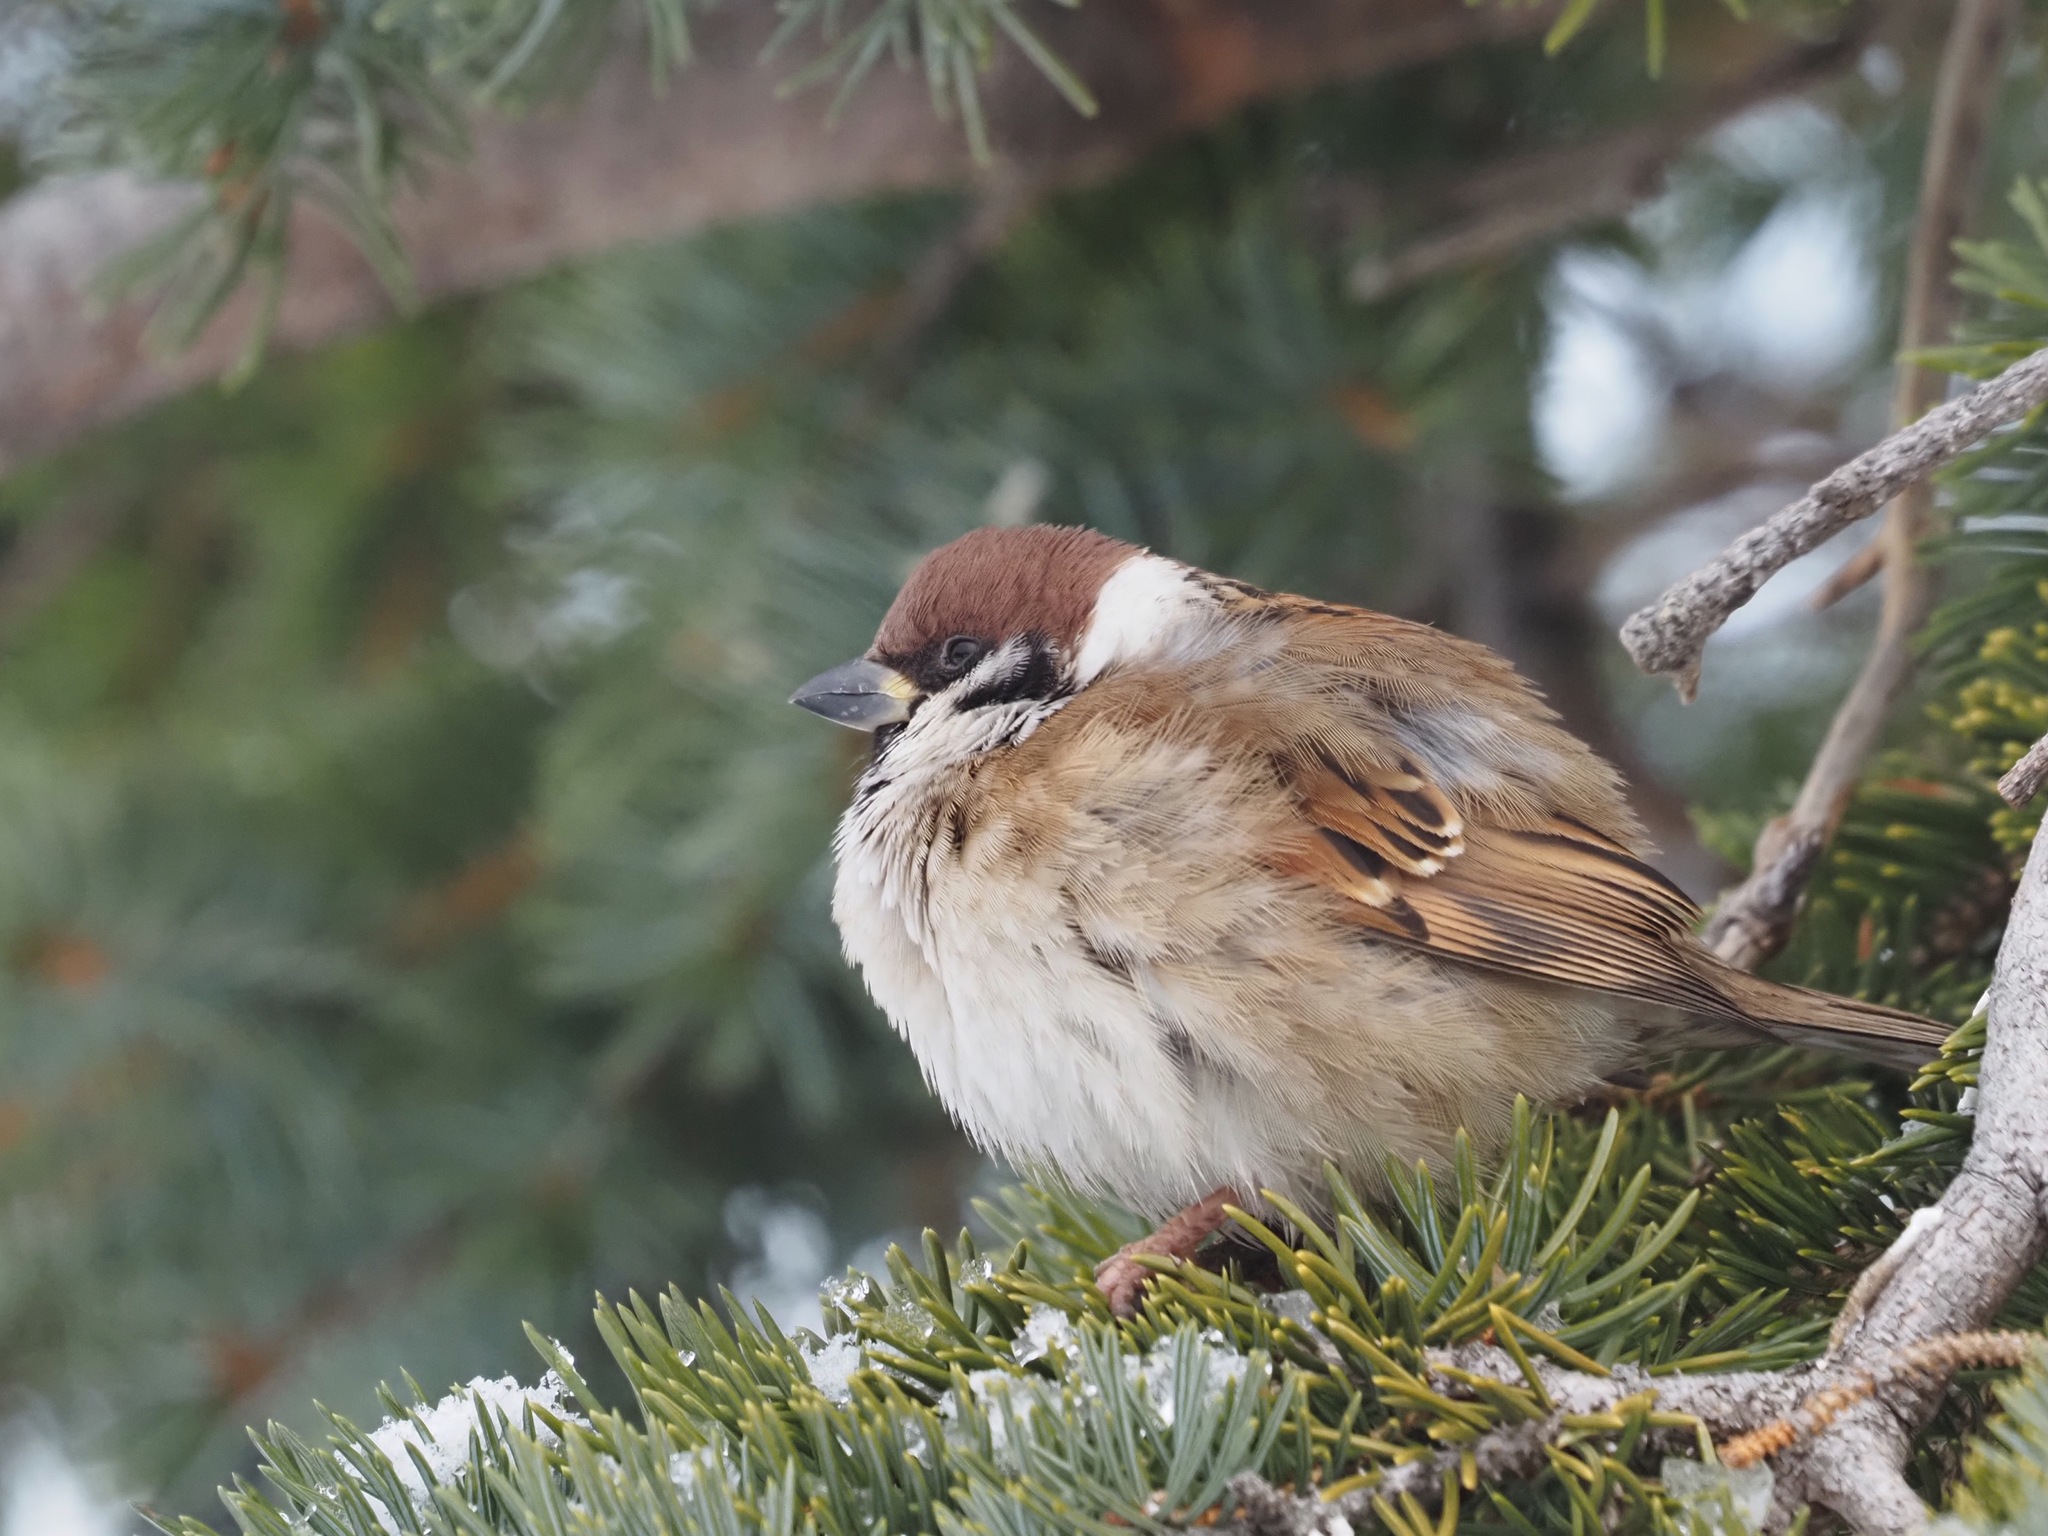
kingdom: Animalia
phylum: Chordata
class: Aves
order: Passeriformes
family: Passeridae
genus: Passer
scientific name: Passer montanus
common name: Eurasian tree sparrow
